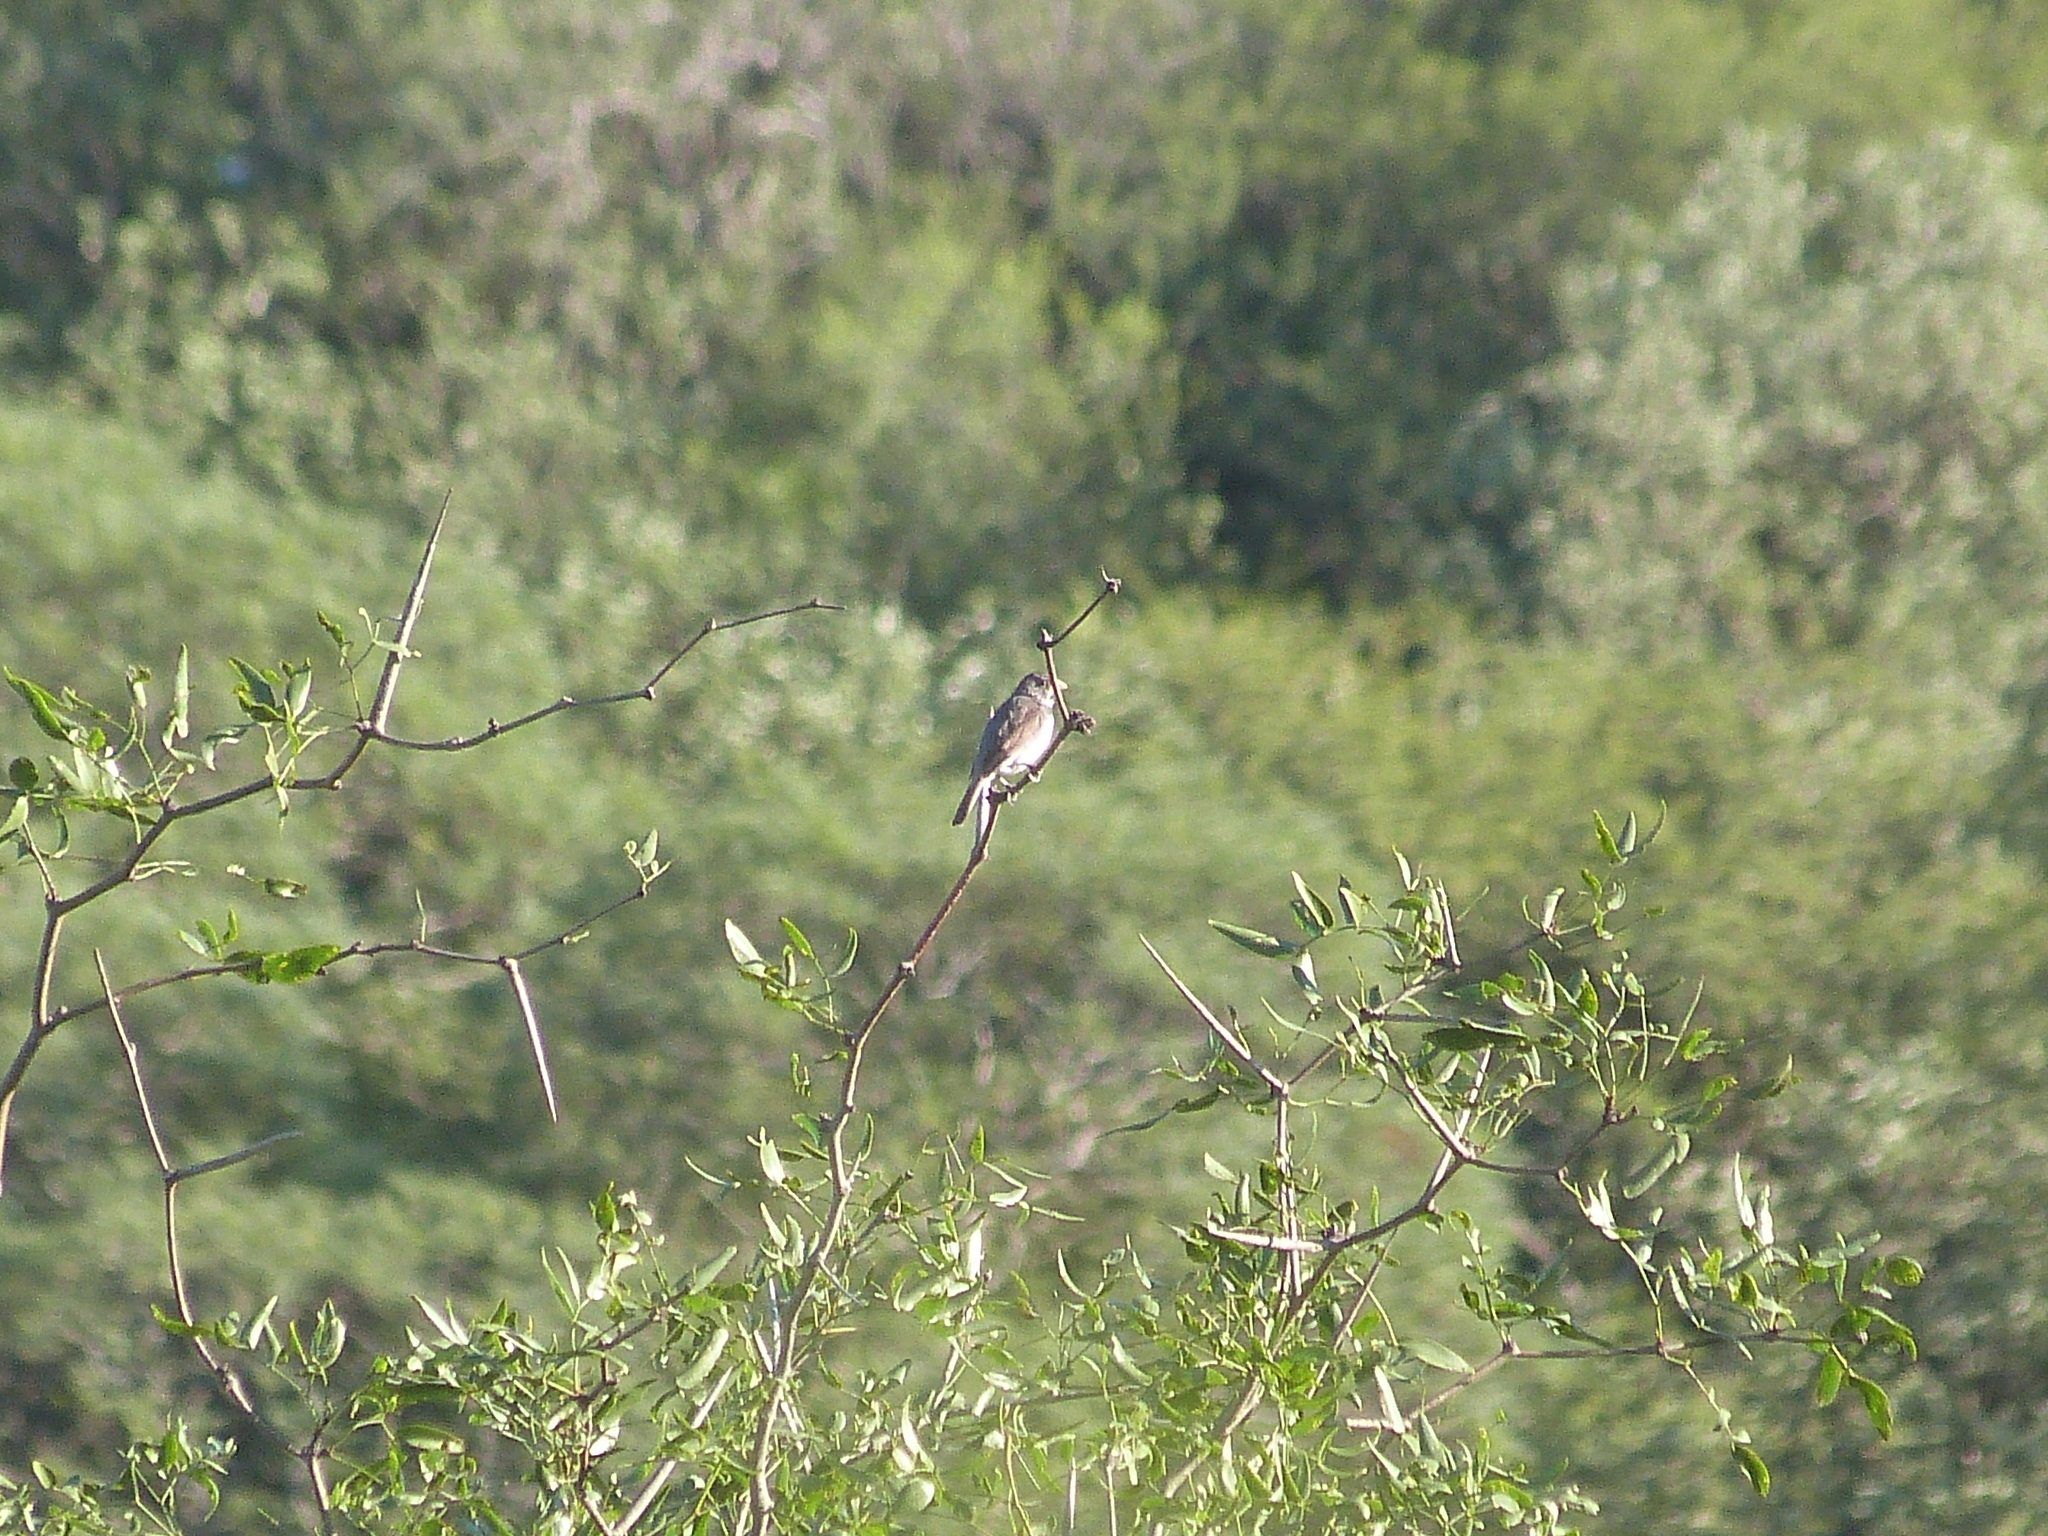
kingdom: Animalia
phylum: Chordata
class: Aves
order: Passeriformes
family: Thraupidae
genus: Sporophila
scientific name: Sporophila caerulescens
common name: Double-collared seedeater
